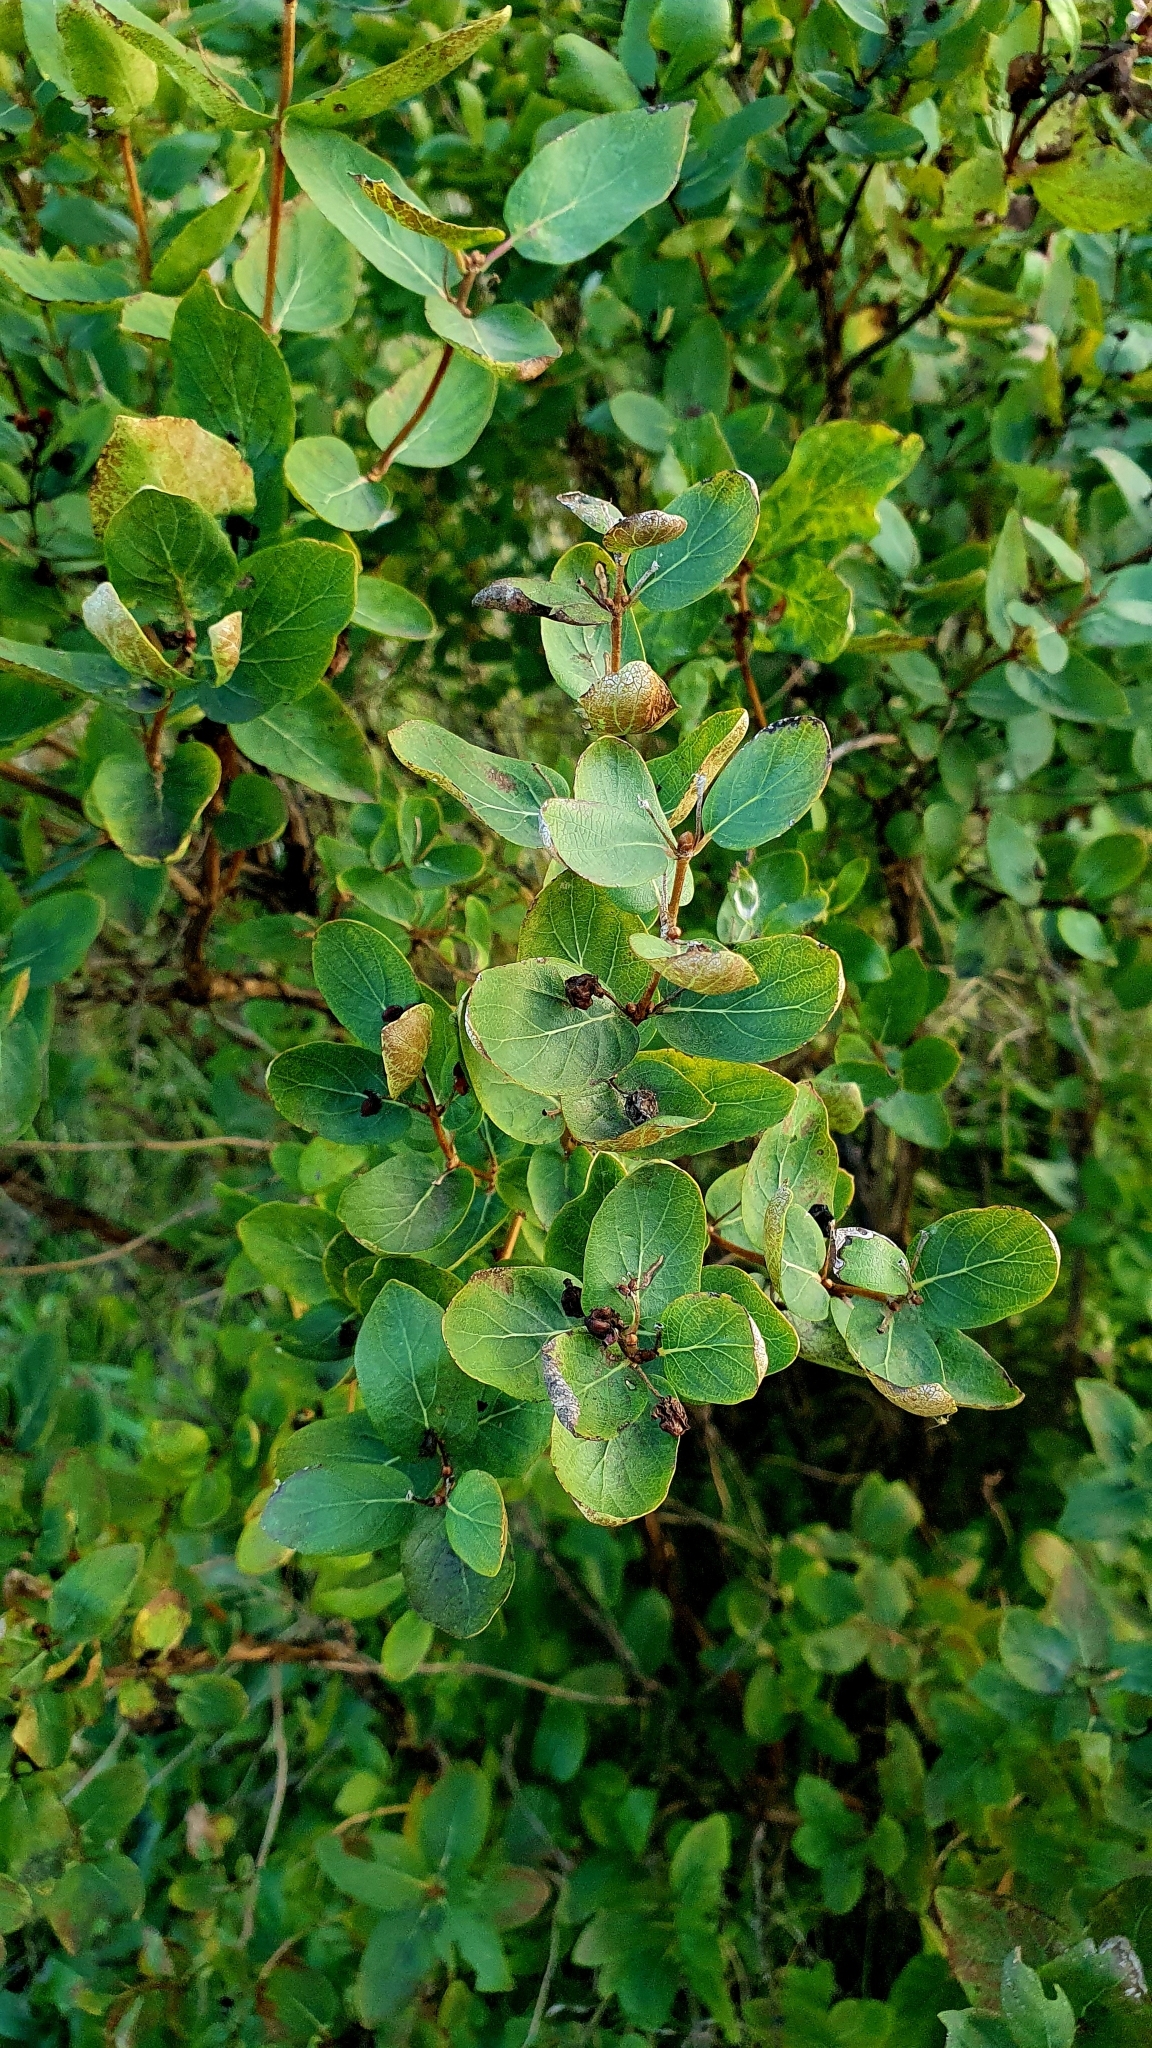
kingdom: Plantae
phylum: Tracheophyta
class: Magnoliopsida
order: Dipsacales
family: Caprifoliaceae
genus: Lonicera
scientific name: Lonicera tatarica
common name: Tatarian honeysuckle
